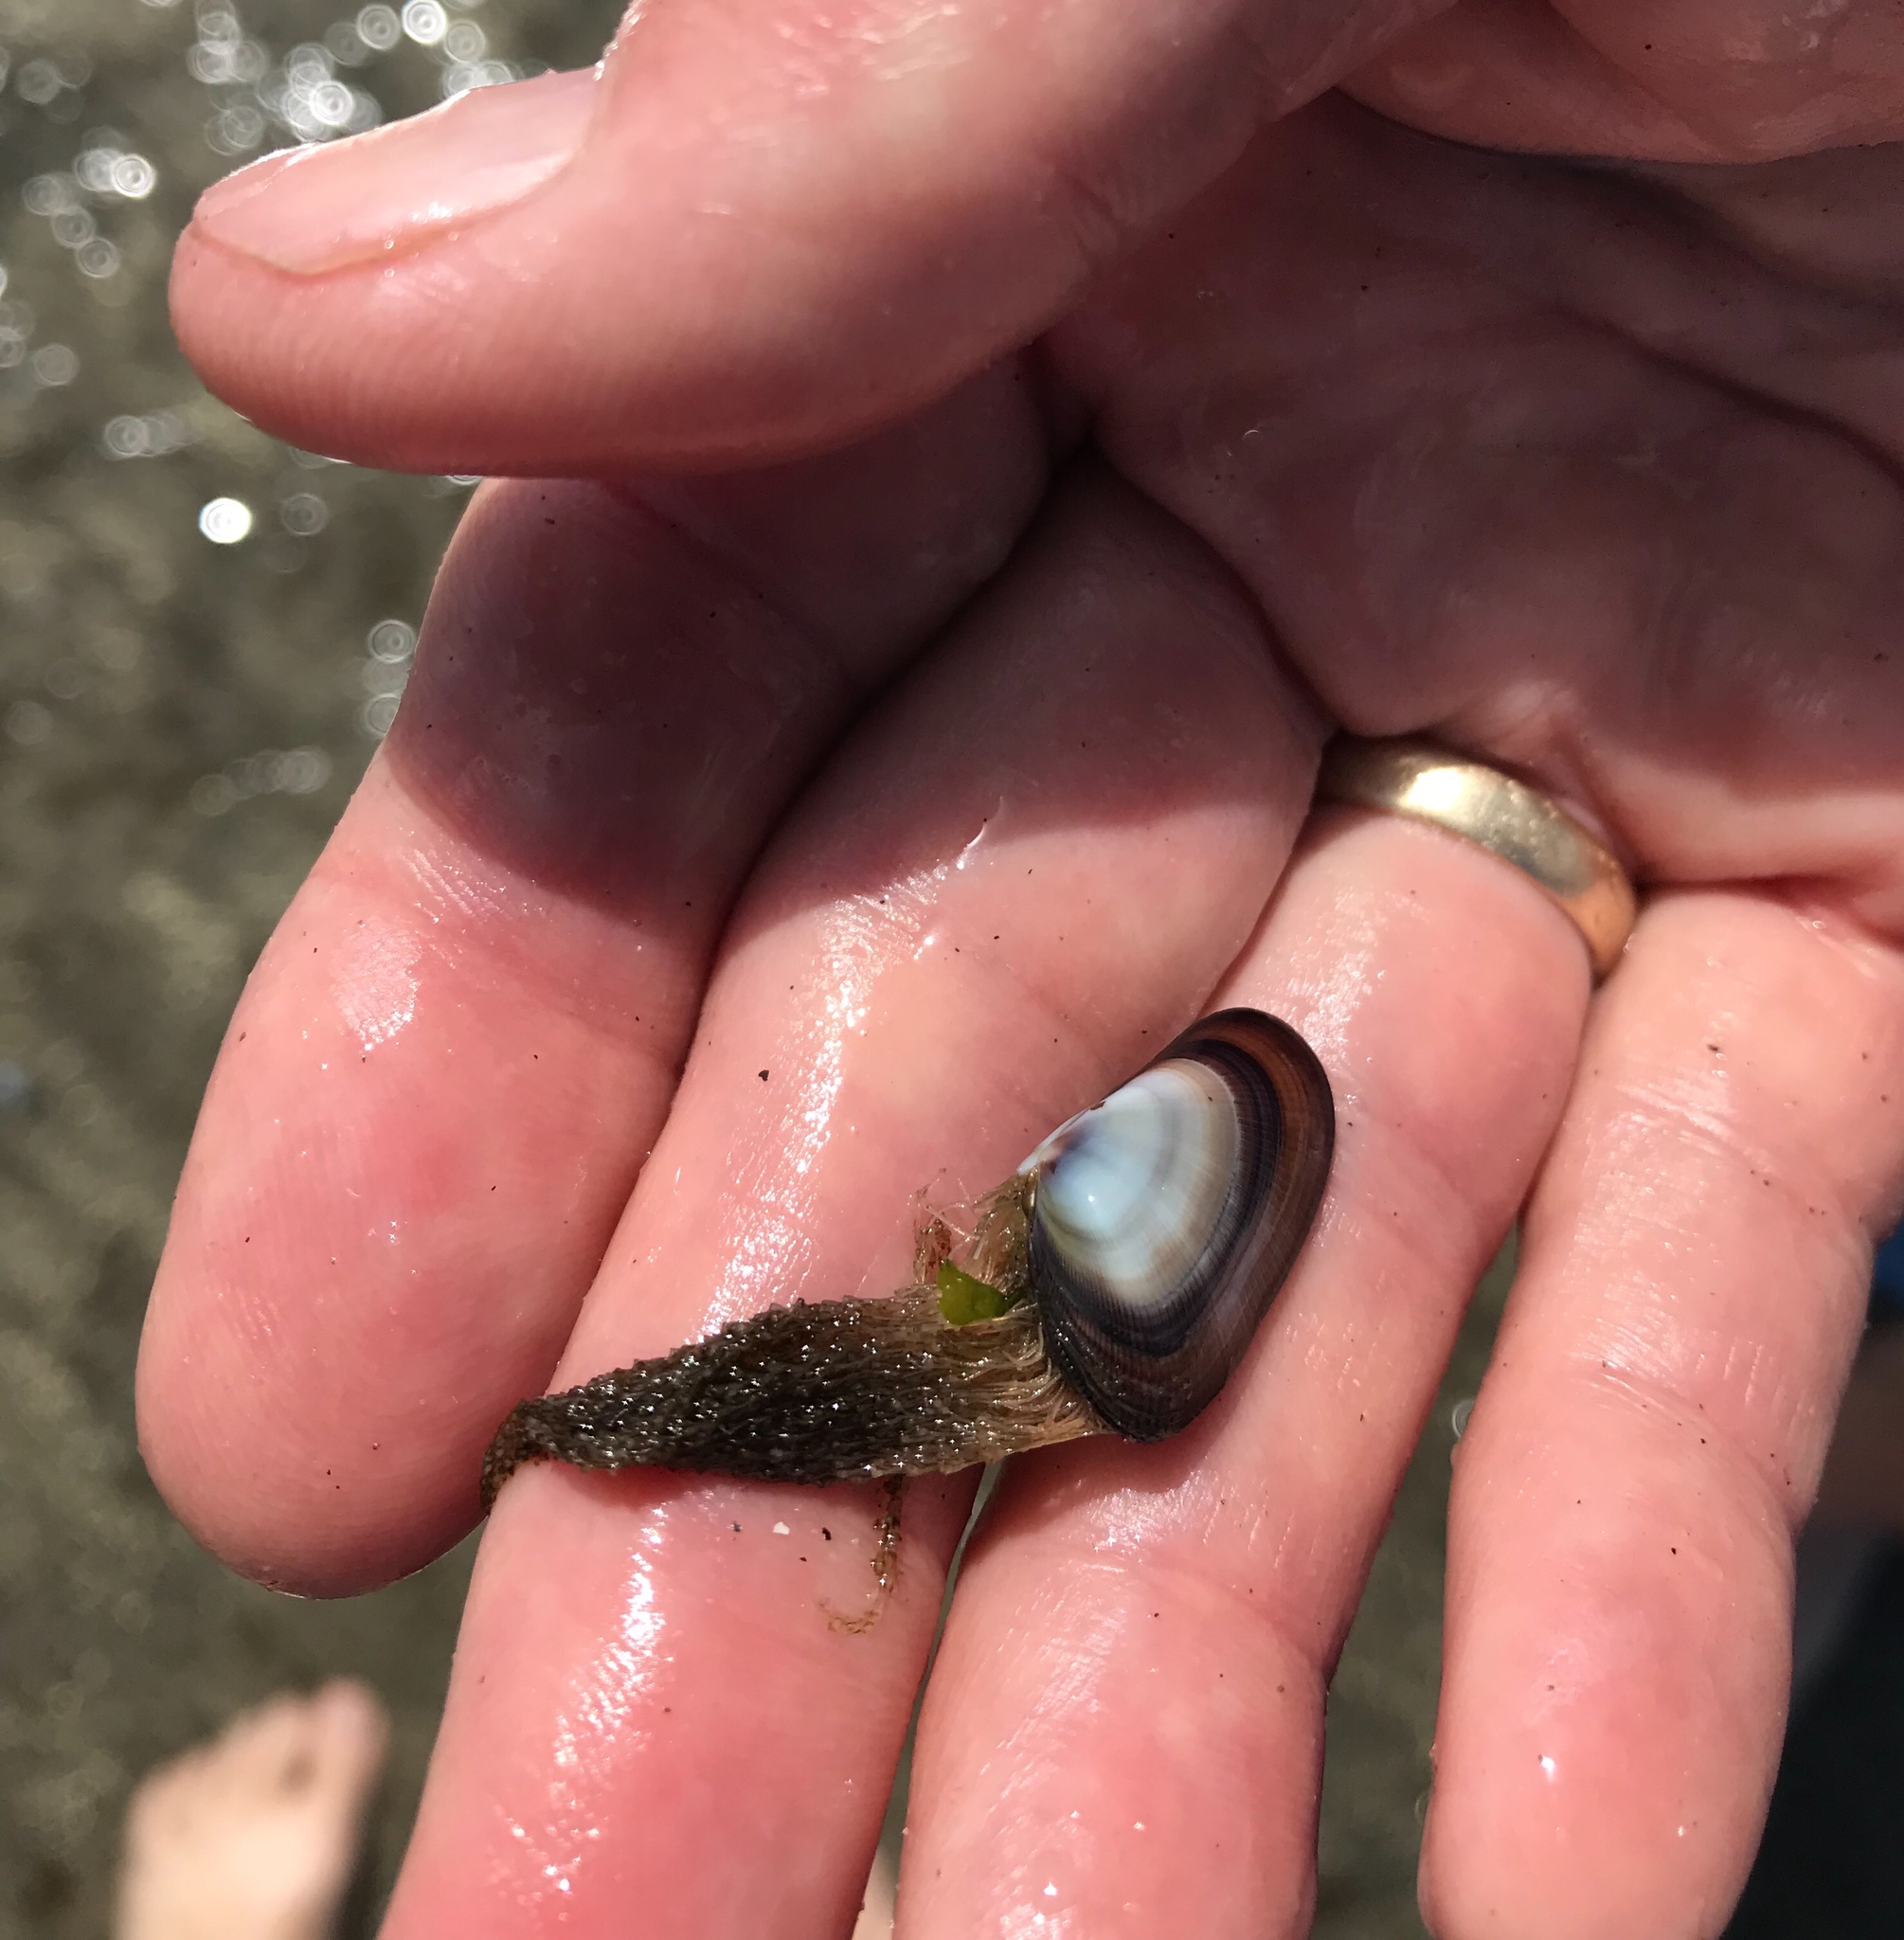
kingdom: Animalia
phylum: Cnidaria
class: Hydrozoa
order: Leptothecata
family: Lovenellidae
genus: Eucheilota
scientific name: Eucheilota bakeri
